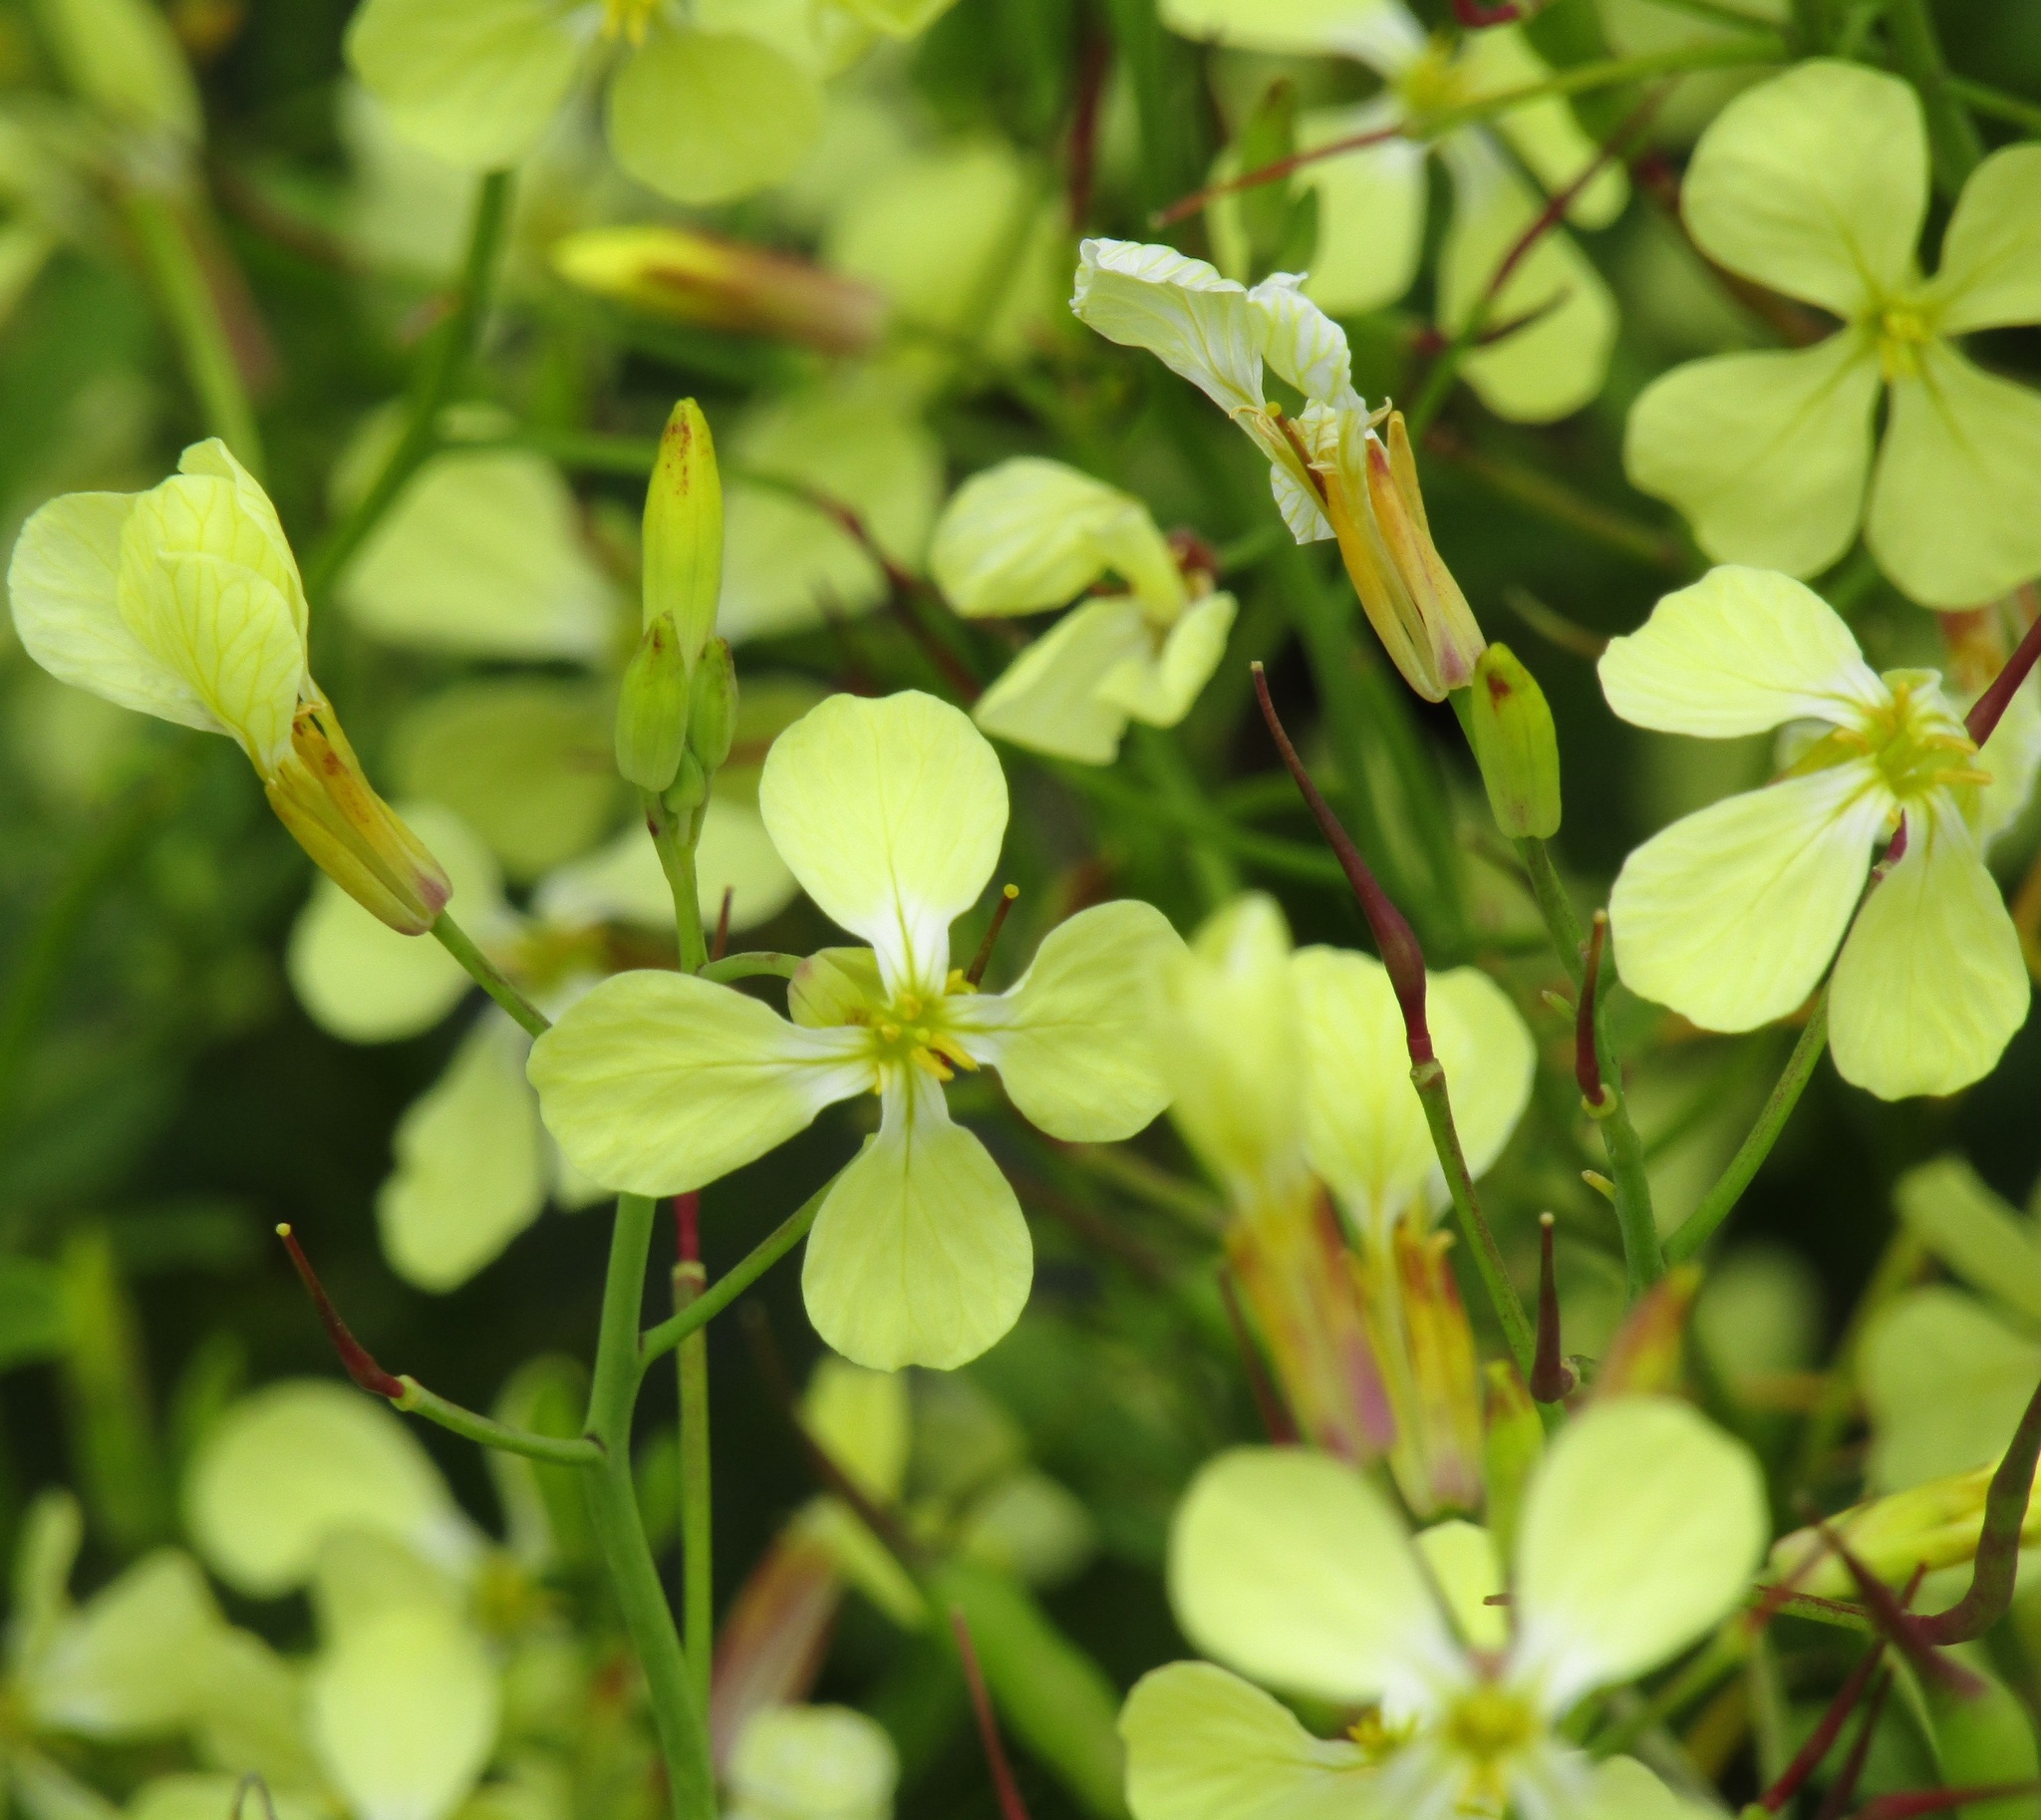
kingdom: Plantae
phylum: Tracheophyta
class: Magnoliopsida
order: Brassicales
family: Brassicaceae
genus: Raphanus
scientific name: Raphanus raphanistrum
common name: Wild radish
